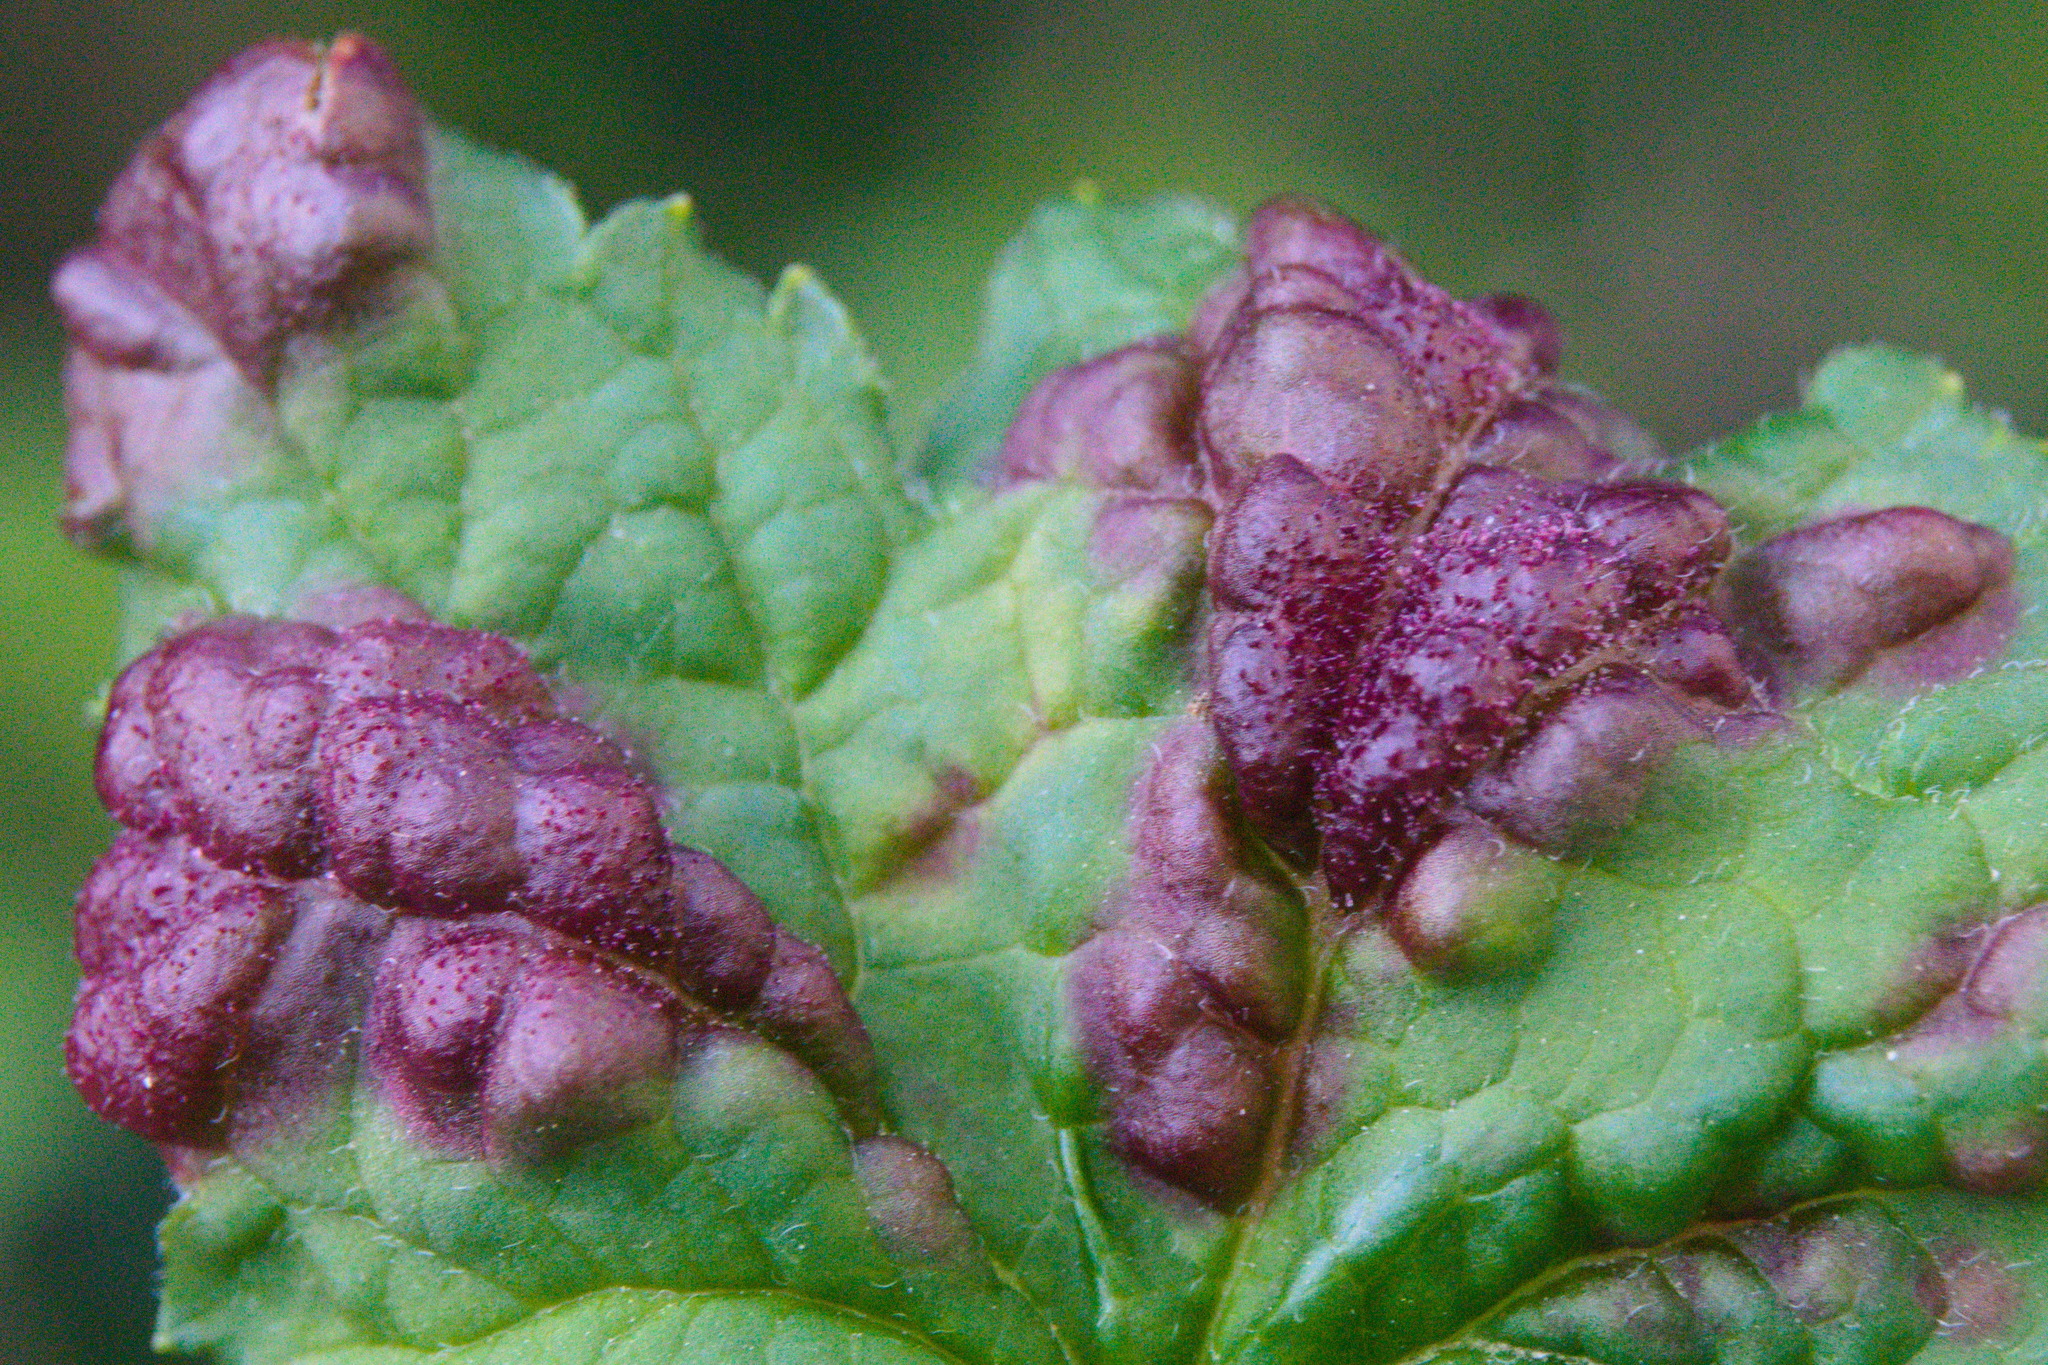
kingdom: Animalia
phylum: Arthropoda
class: Insecta
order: Hemiptera
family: Aphididae
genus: Cryptomyzus
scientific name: Cryptomyzus ribis
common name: Currant aphid
